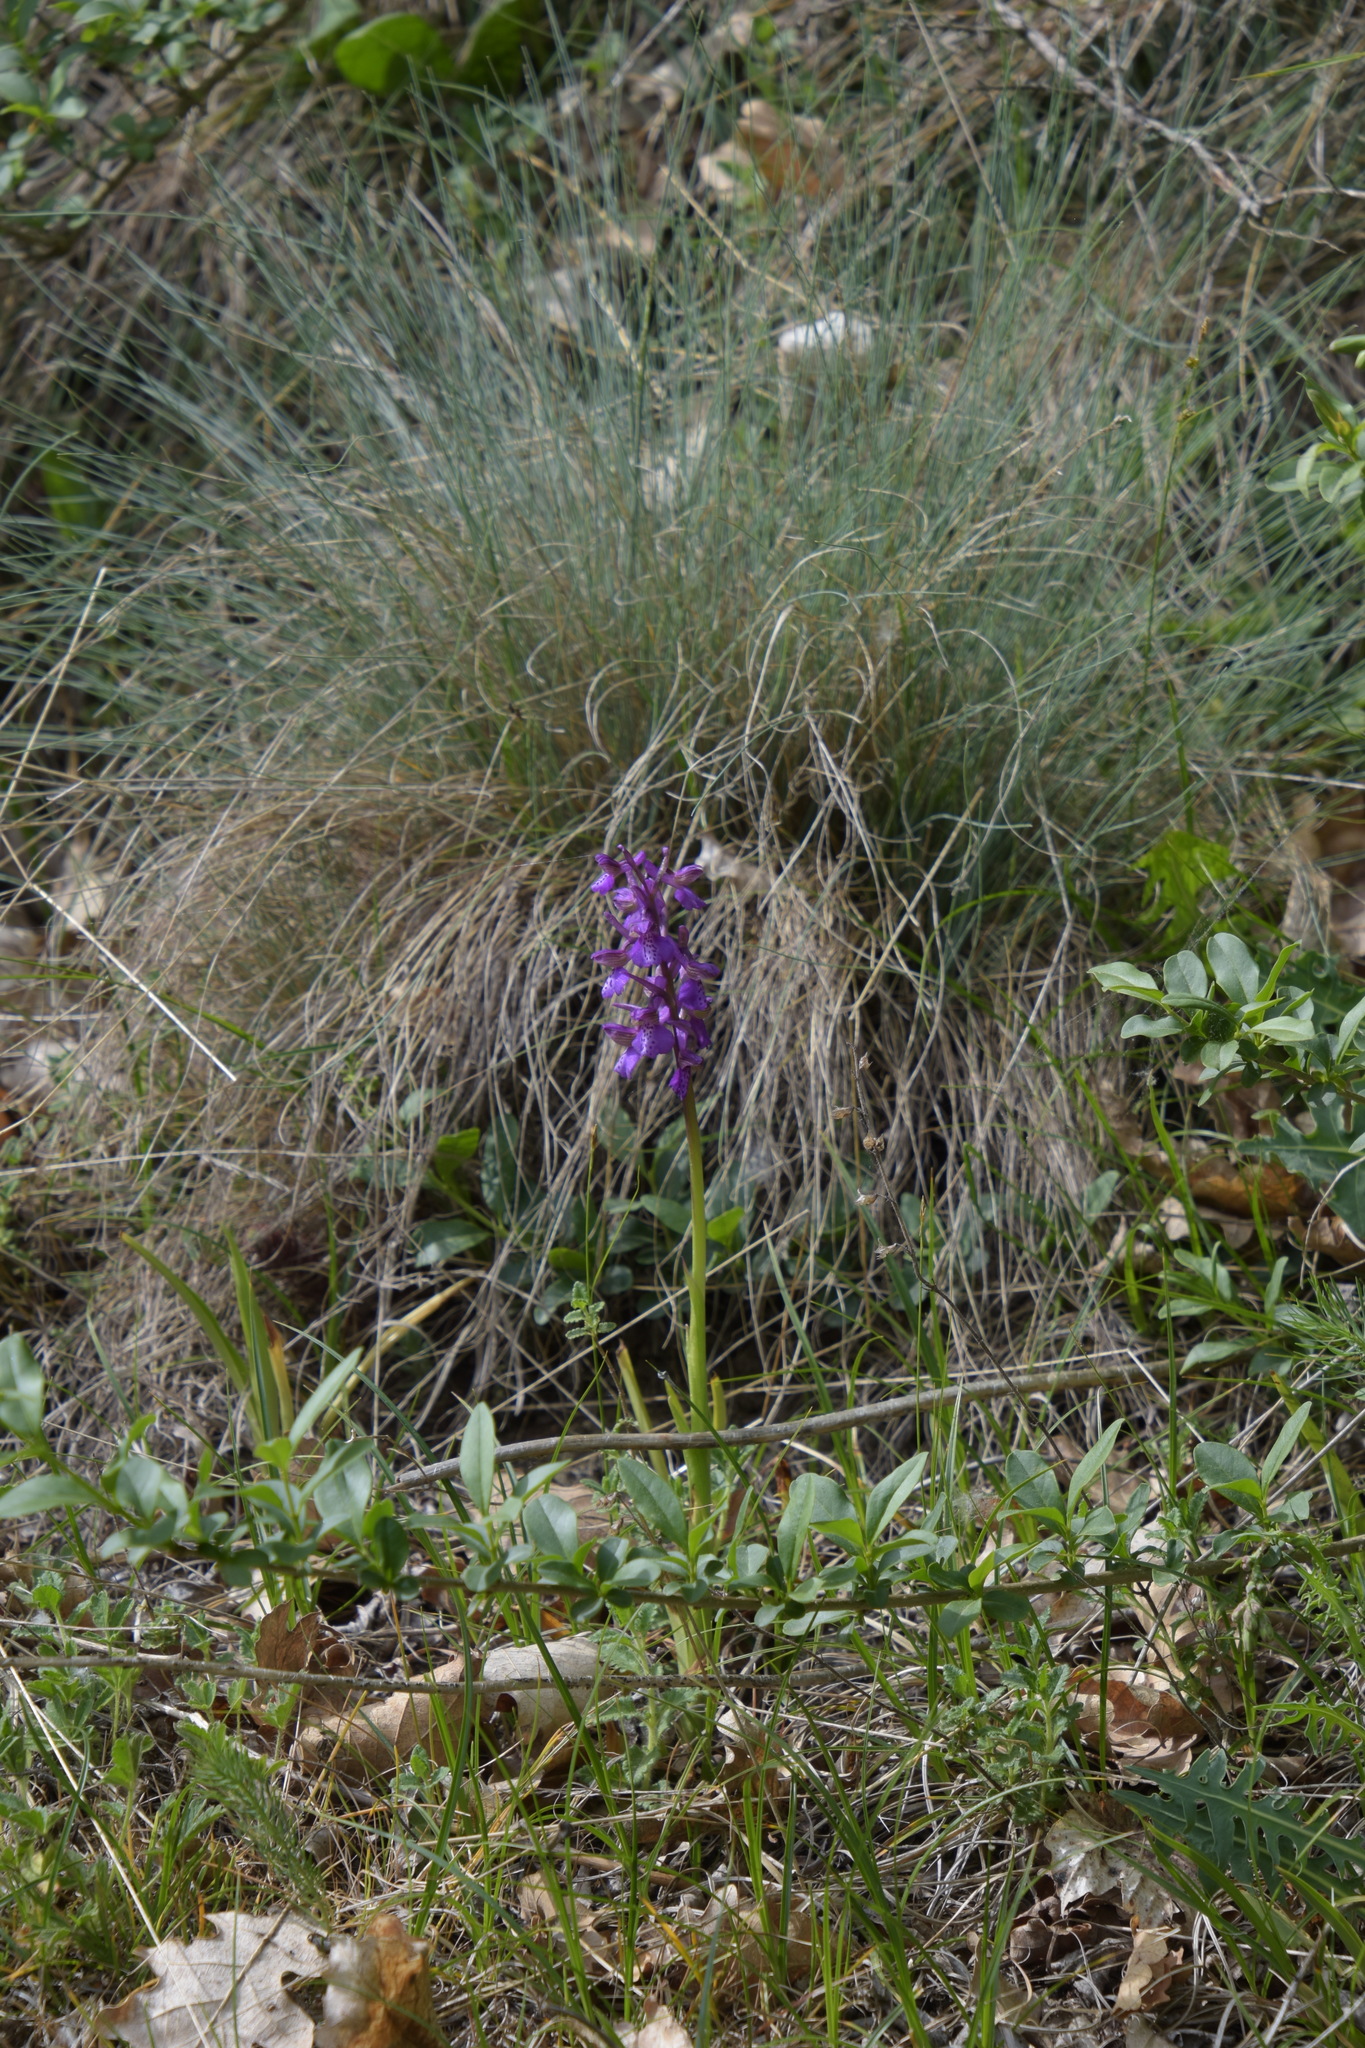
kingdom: Plantae
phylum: Tracheophyta
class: Liliopsida
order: Asparagales
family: Orchidaceae
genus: Anacamptis
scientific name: Anacamptis morio
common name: Green-winged orchid
